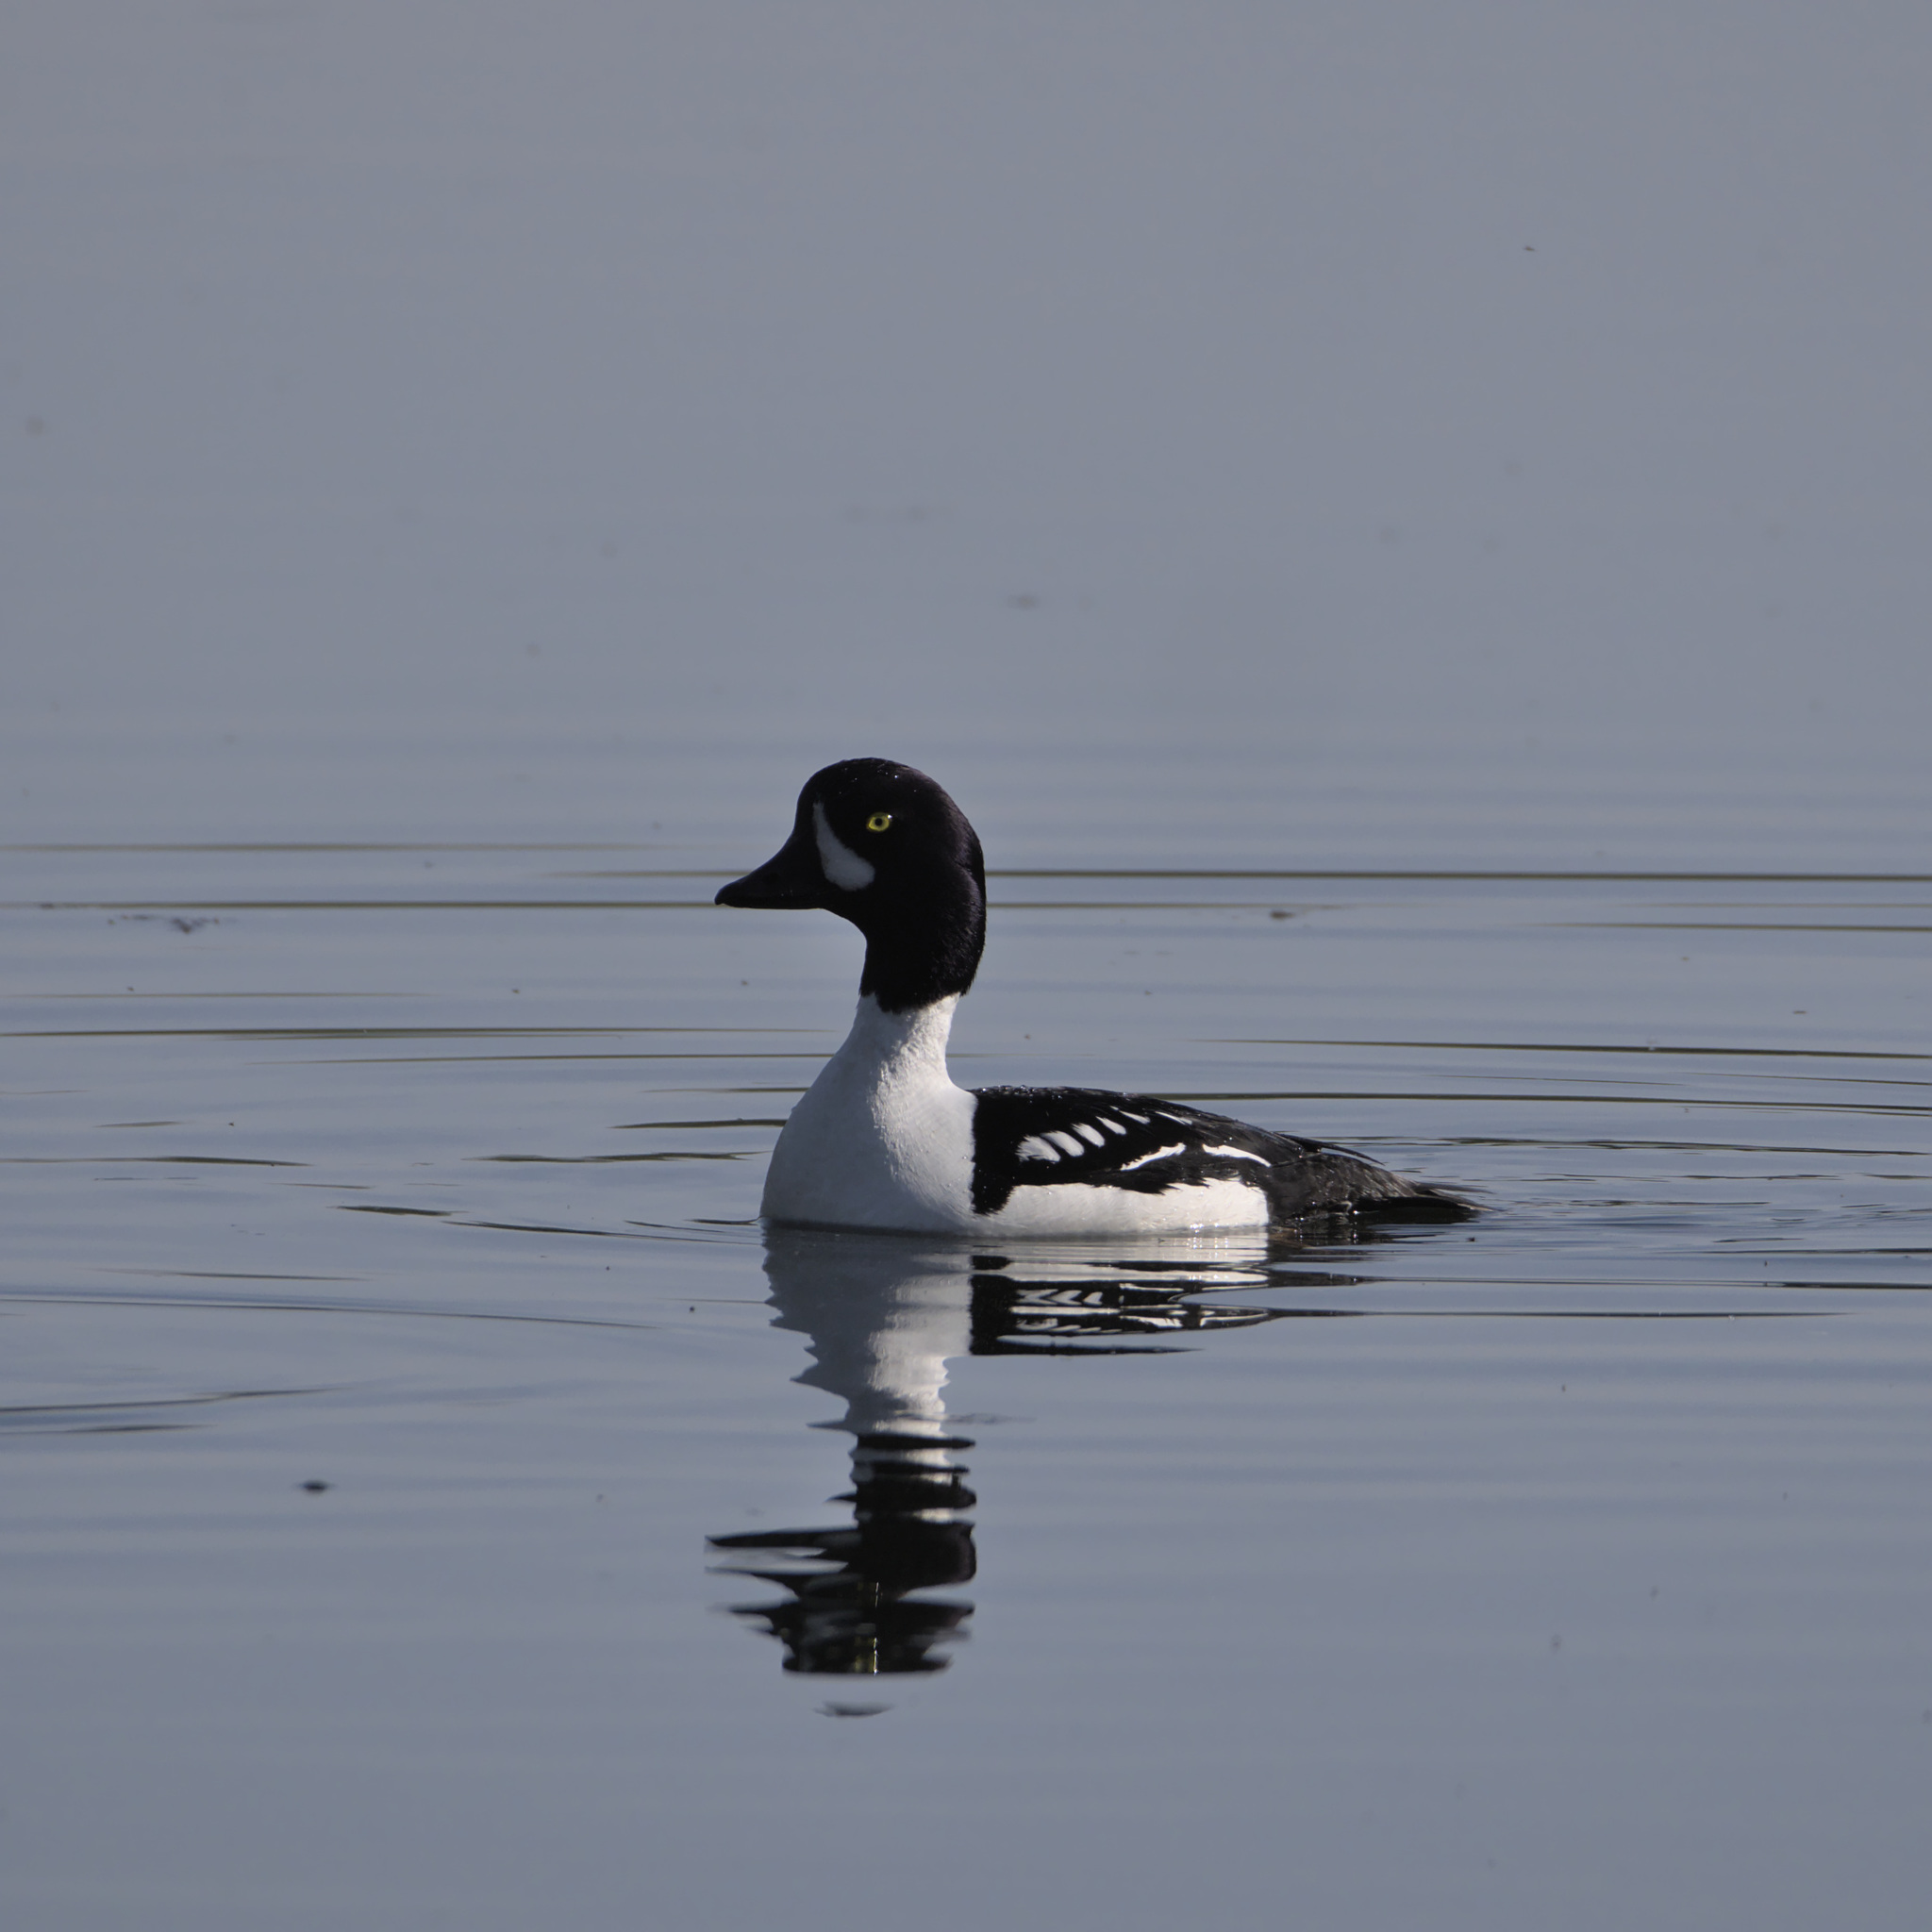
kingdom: Animalia
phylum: Chordata
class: Aves
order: Anseriformes
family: Anatidae
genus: Bucephala
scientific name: Bucephala islandica
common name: Barrow's goldeneye
